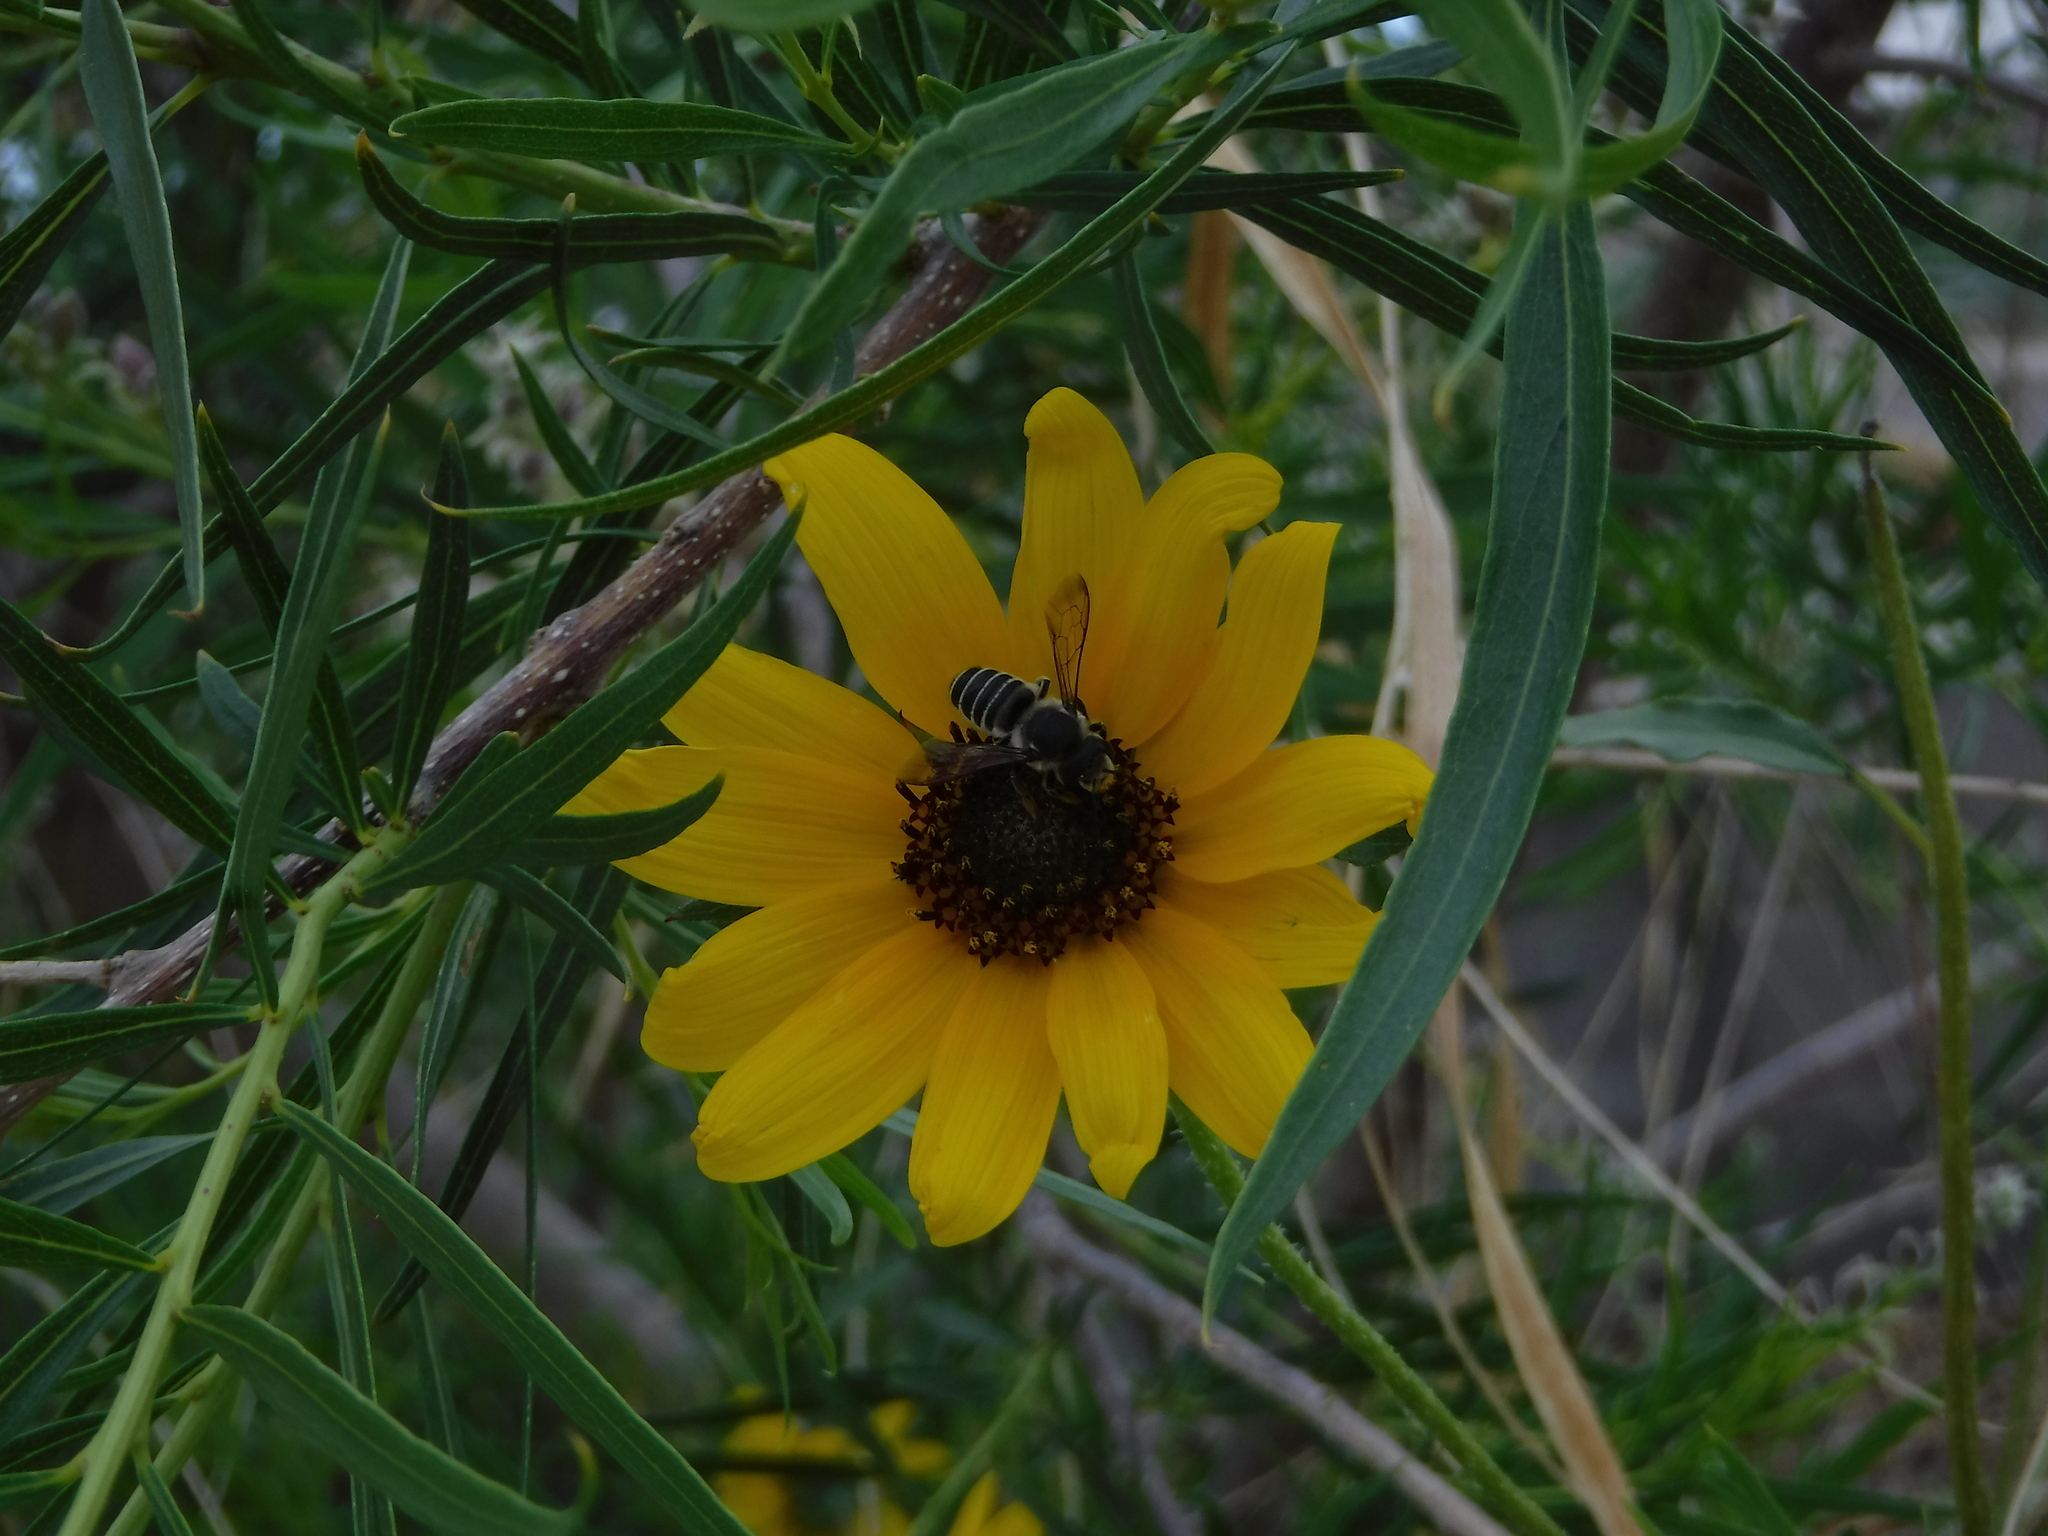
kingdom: Animalia
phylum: Arthropoda
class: Insecta
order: Hymenoptera
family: Megachilidae
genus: Megachile
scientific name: Megachile policaris
